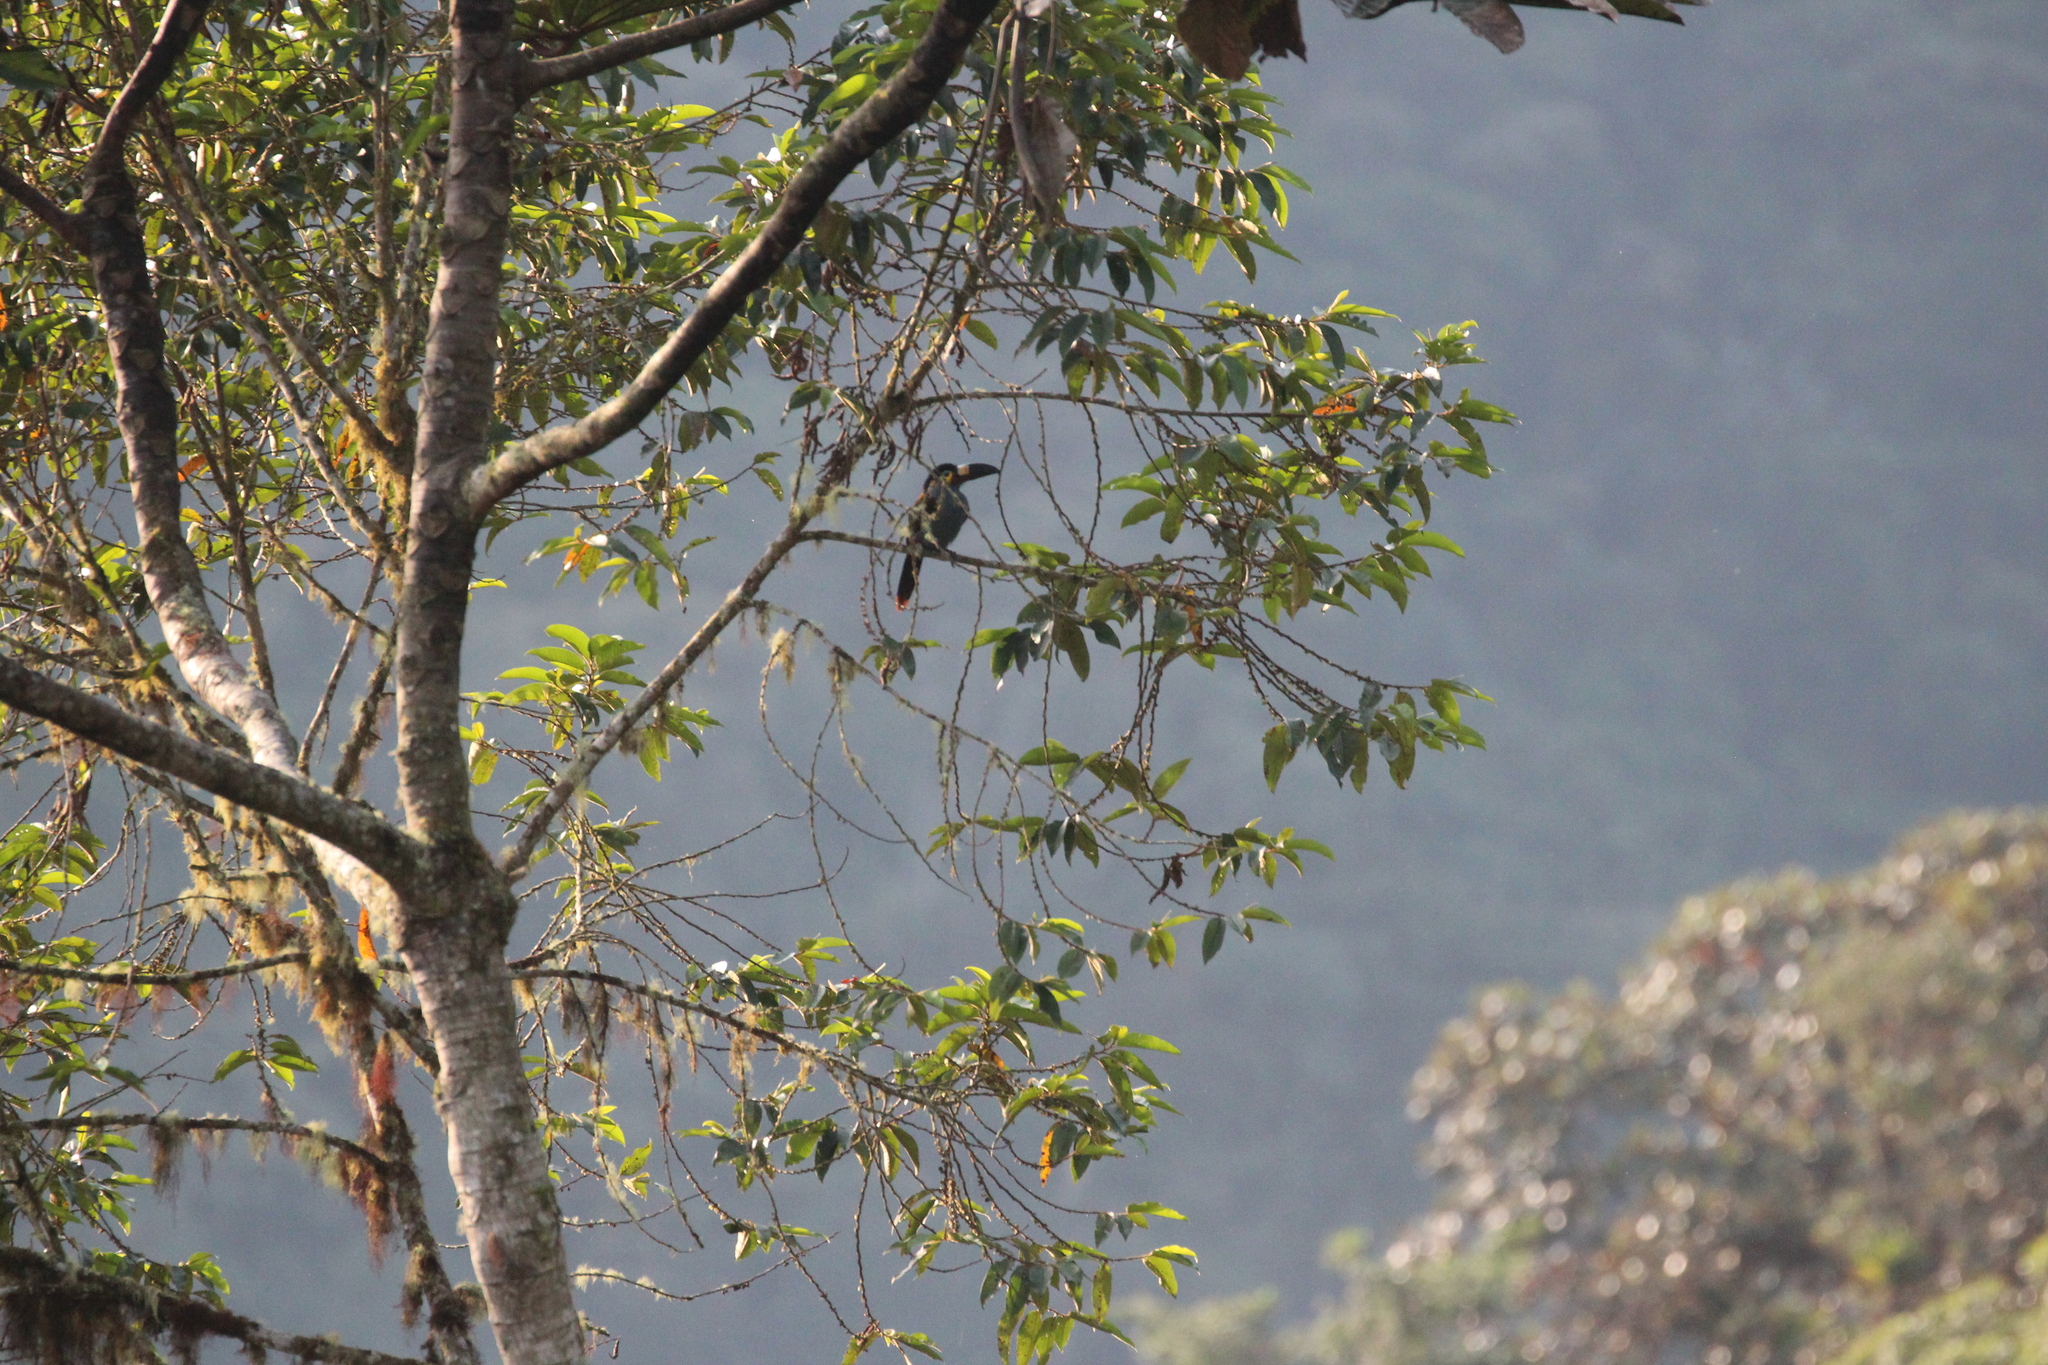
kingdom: Animalia
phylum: Chordata
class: Aves
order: Piciformes
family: Ramphastidae
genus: Andigena
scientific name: Andigena laminirostris
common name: Plate-billed mountain toucan
